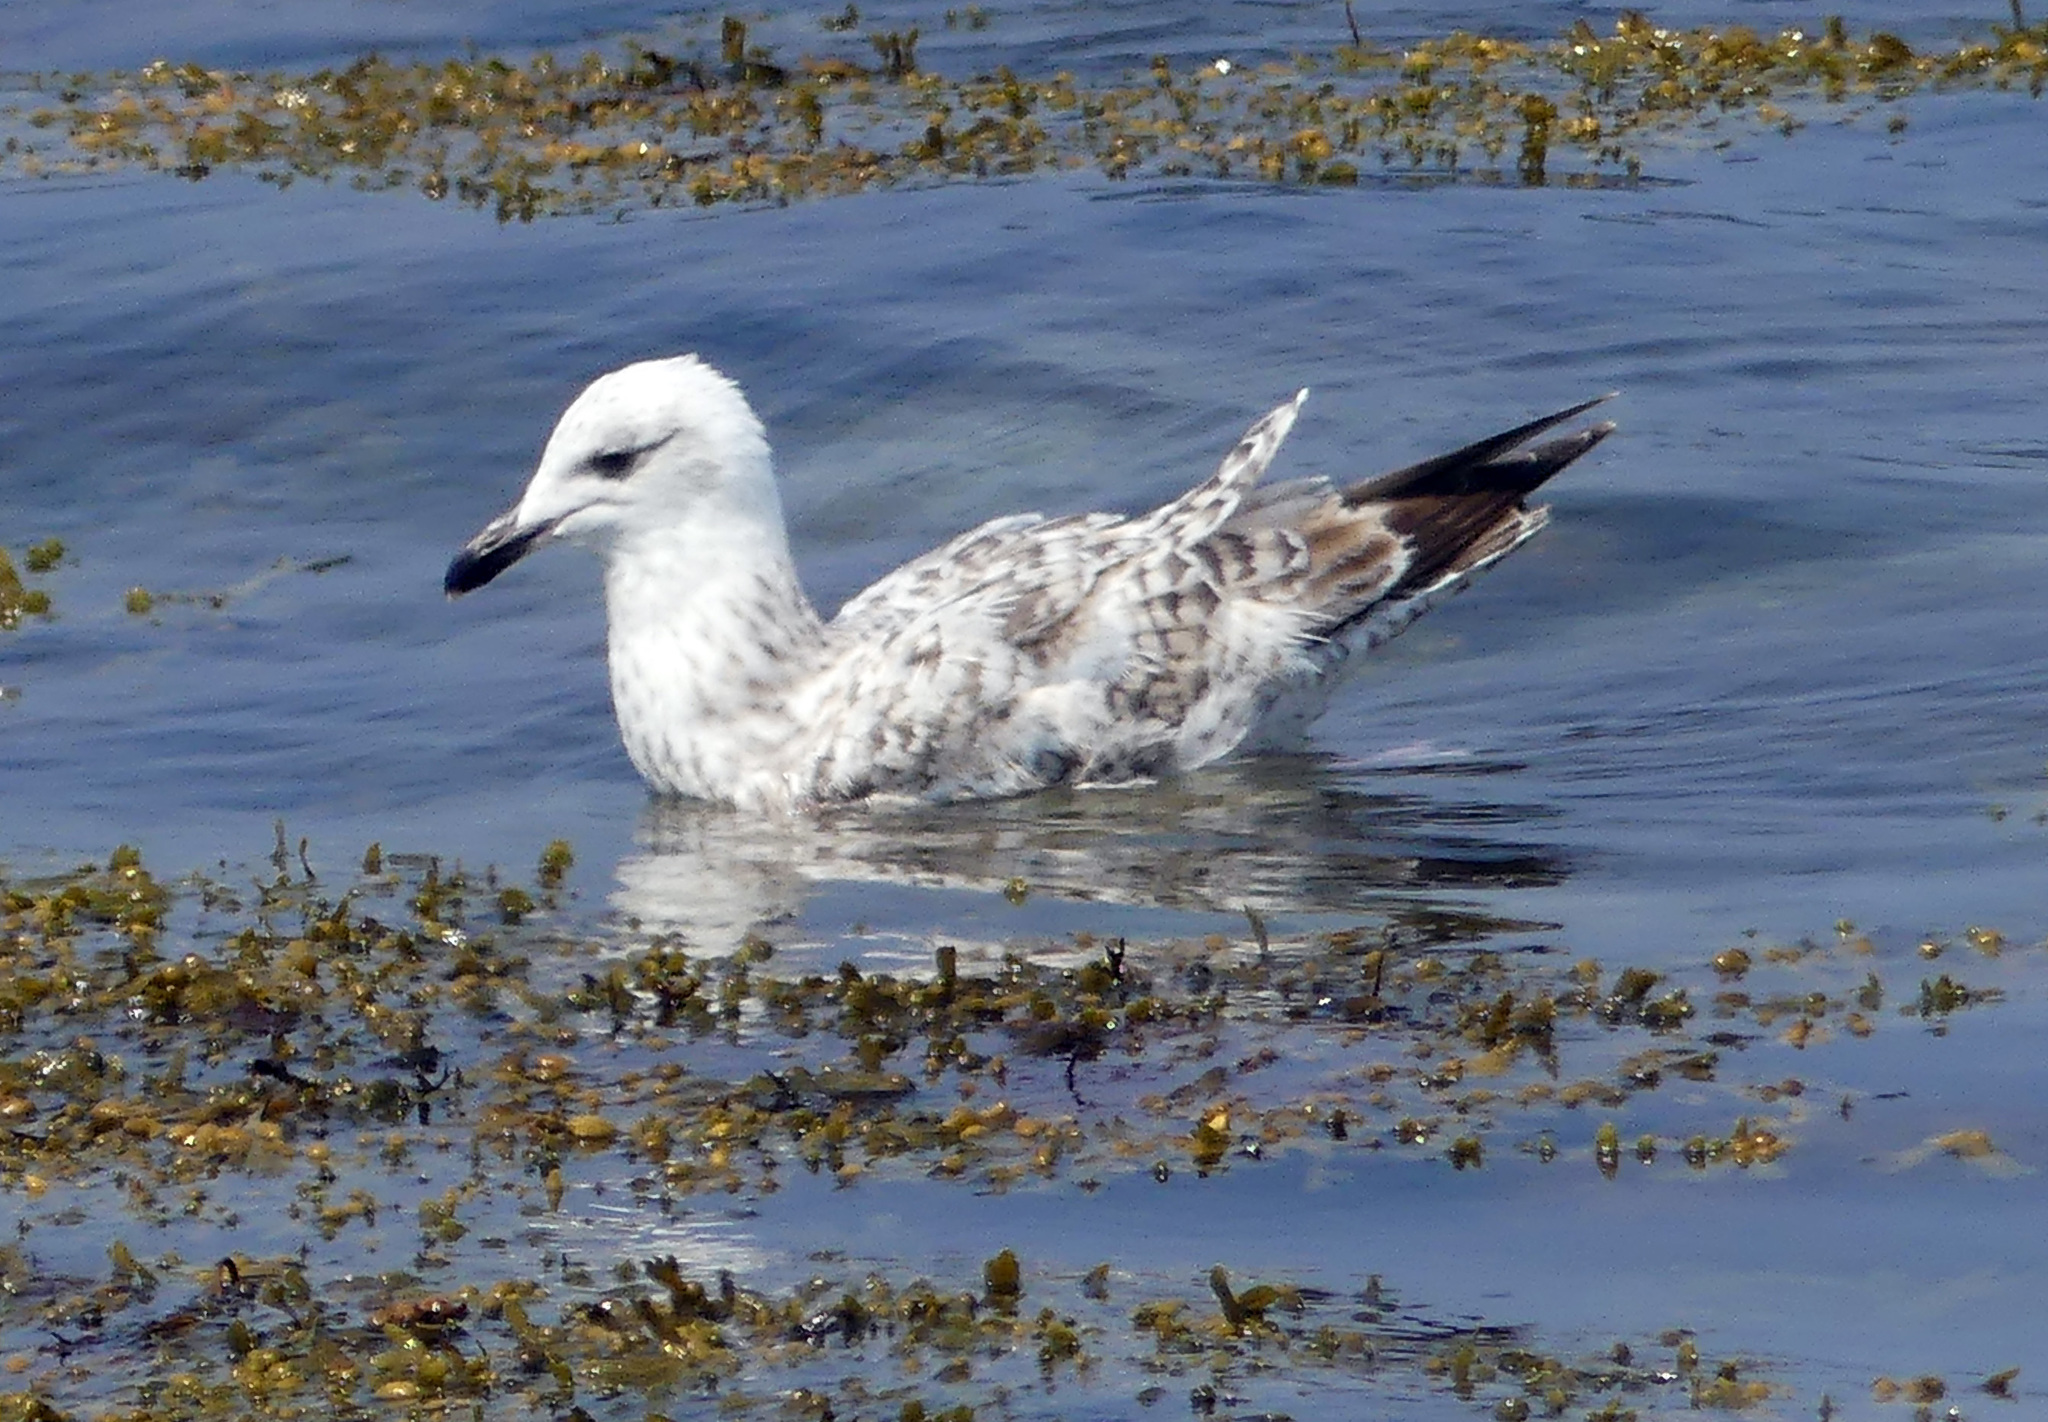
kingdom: Animalia
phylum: Chordata
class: Aves
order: Charadriiformes
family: Laridae
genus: Larus
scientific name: Larus argentatus
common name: Herring gull
